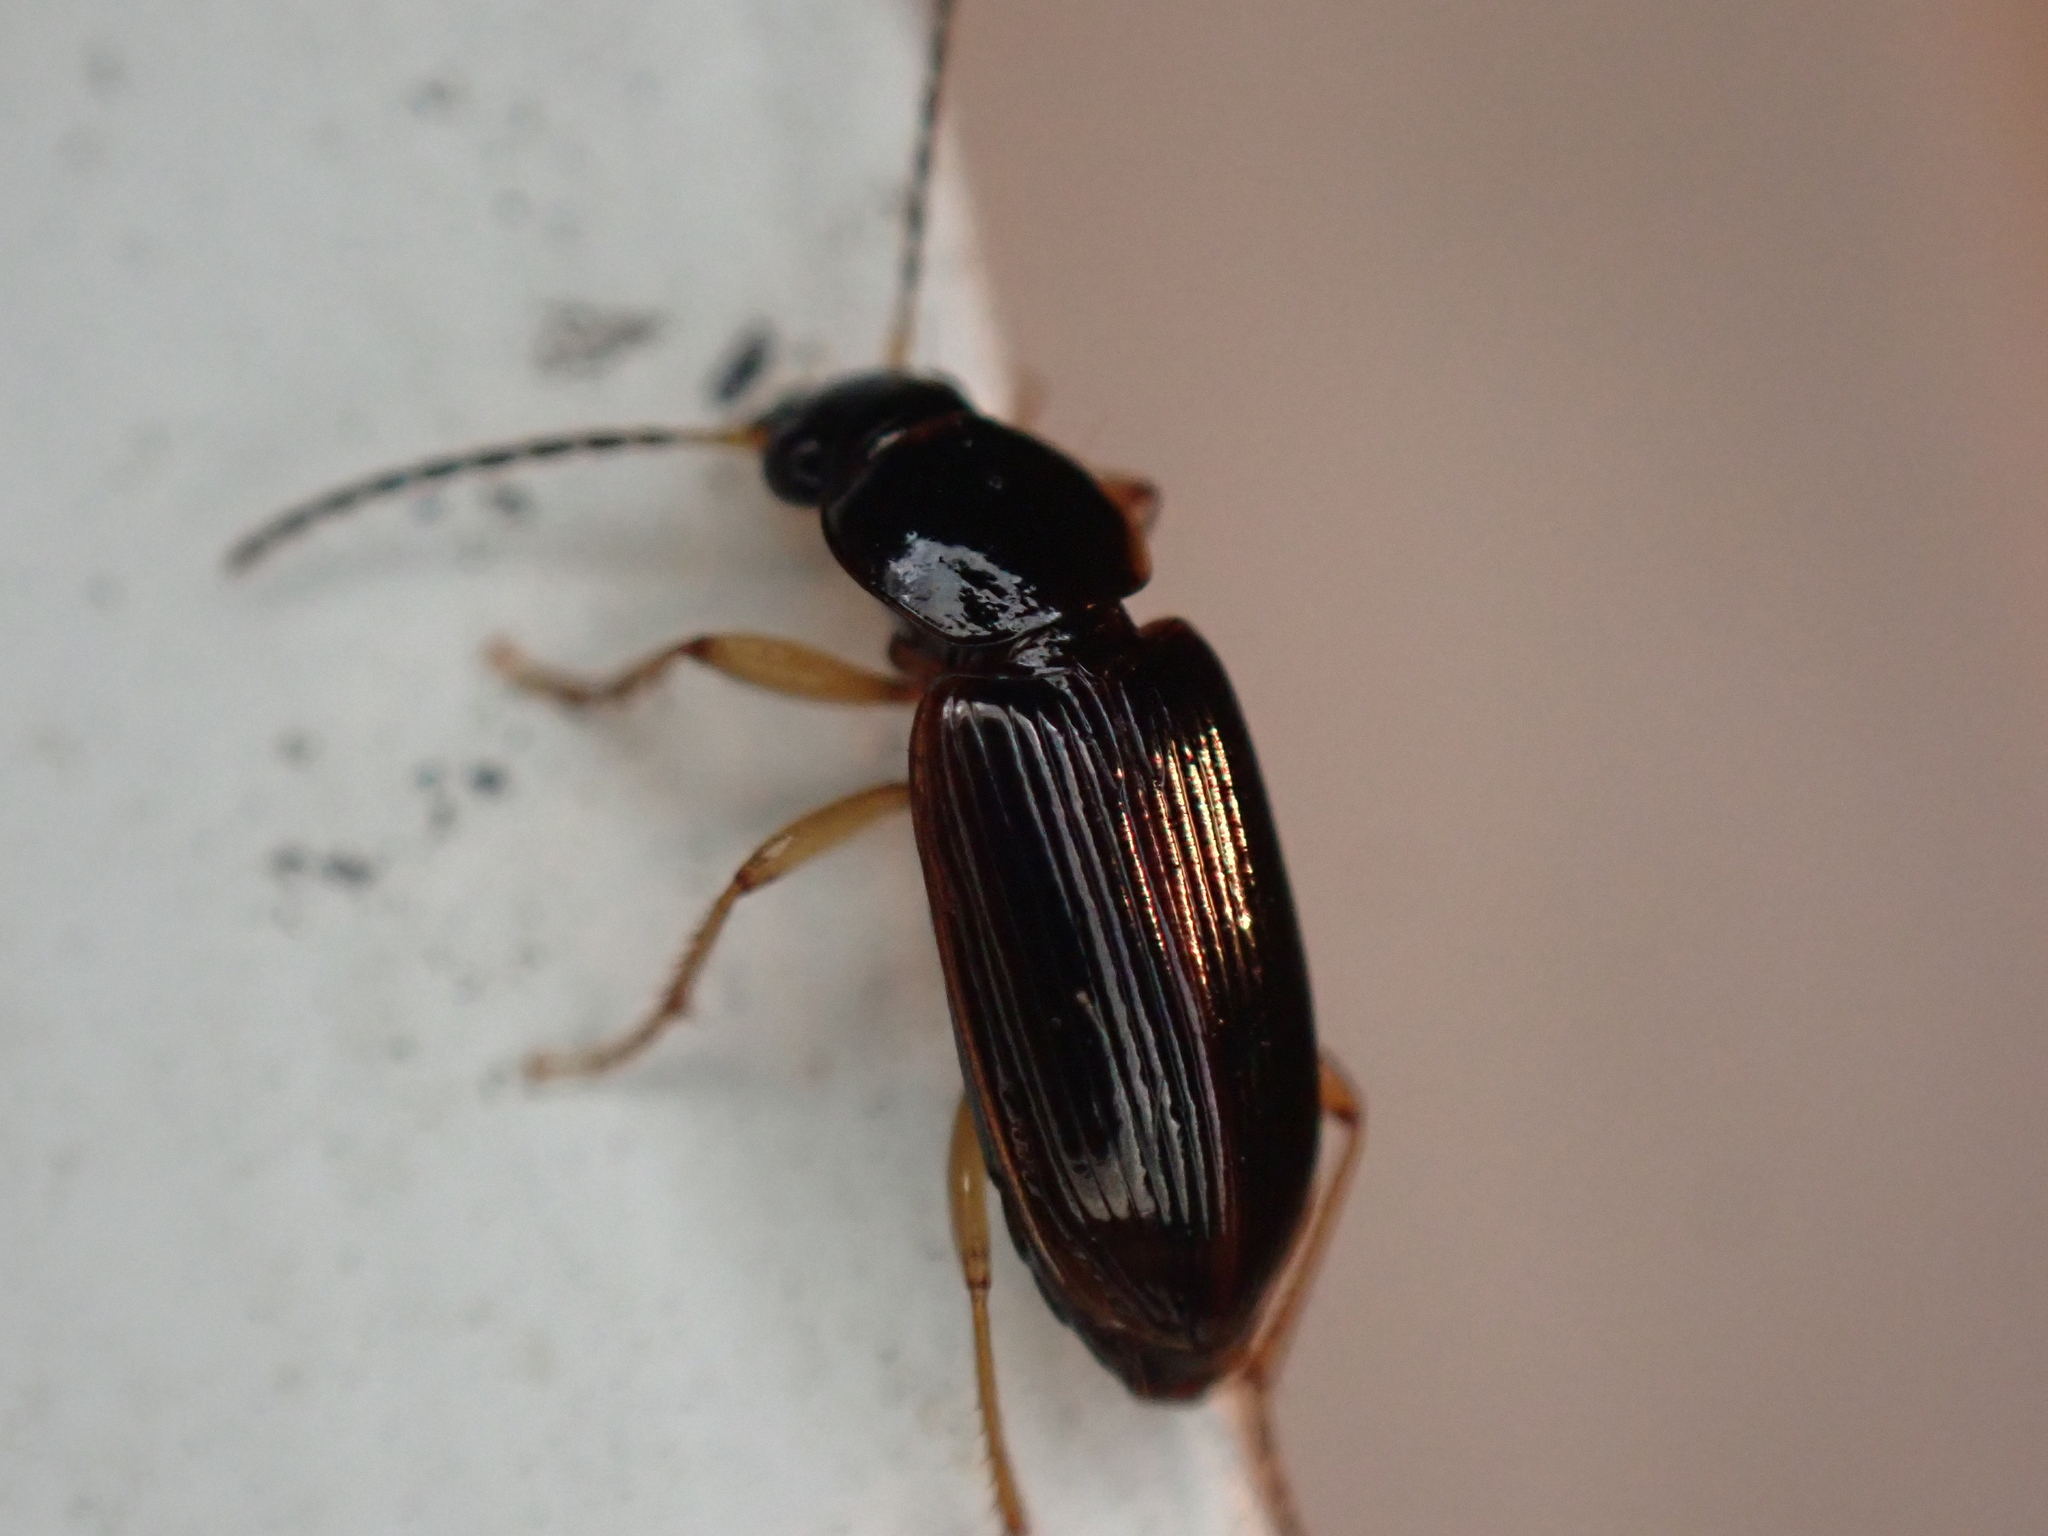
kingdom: Animalia
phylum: Arthropoda
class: Insecta
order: Coleoptera
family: Carabidae
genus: Stenolophus
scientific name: Stenolophus ochropezus
